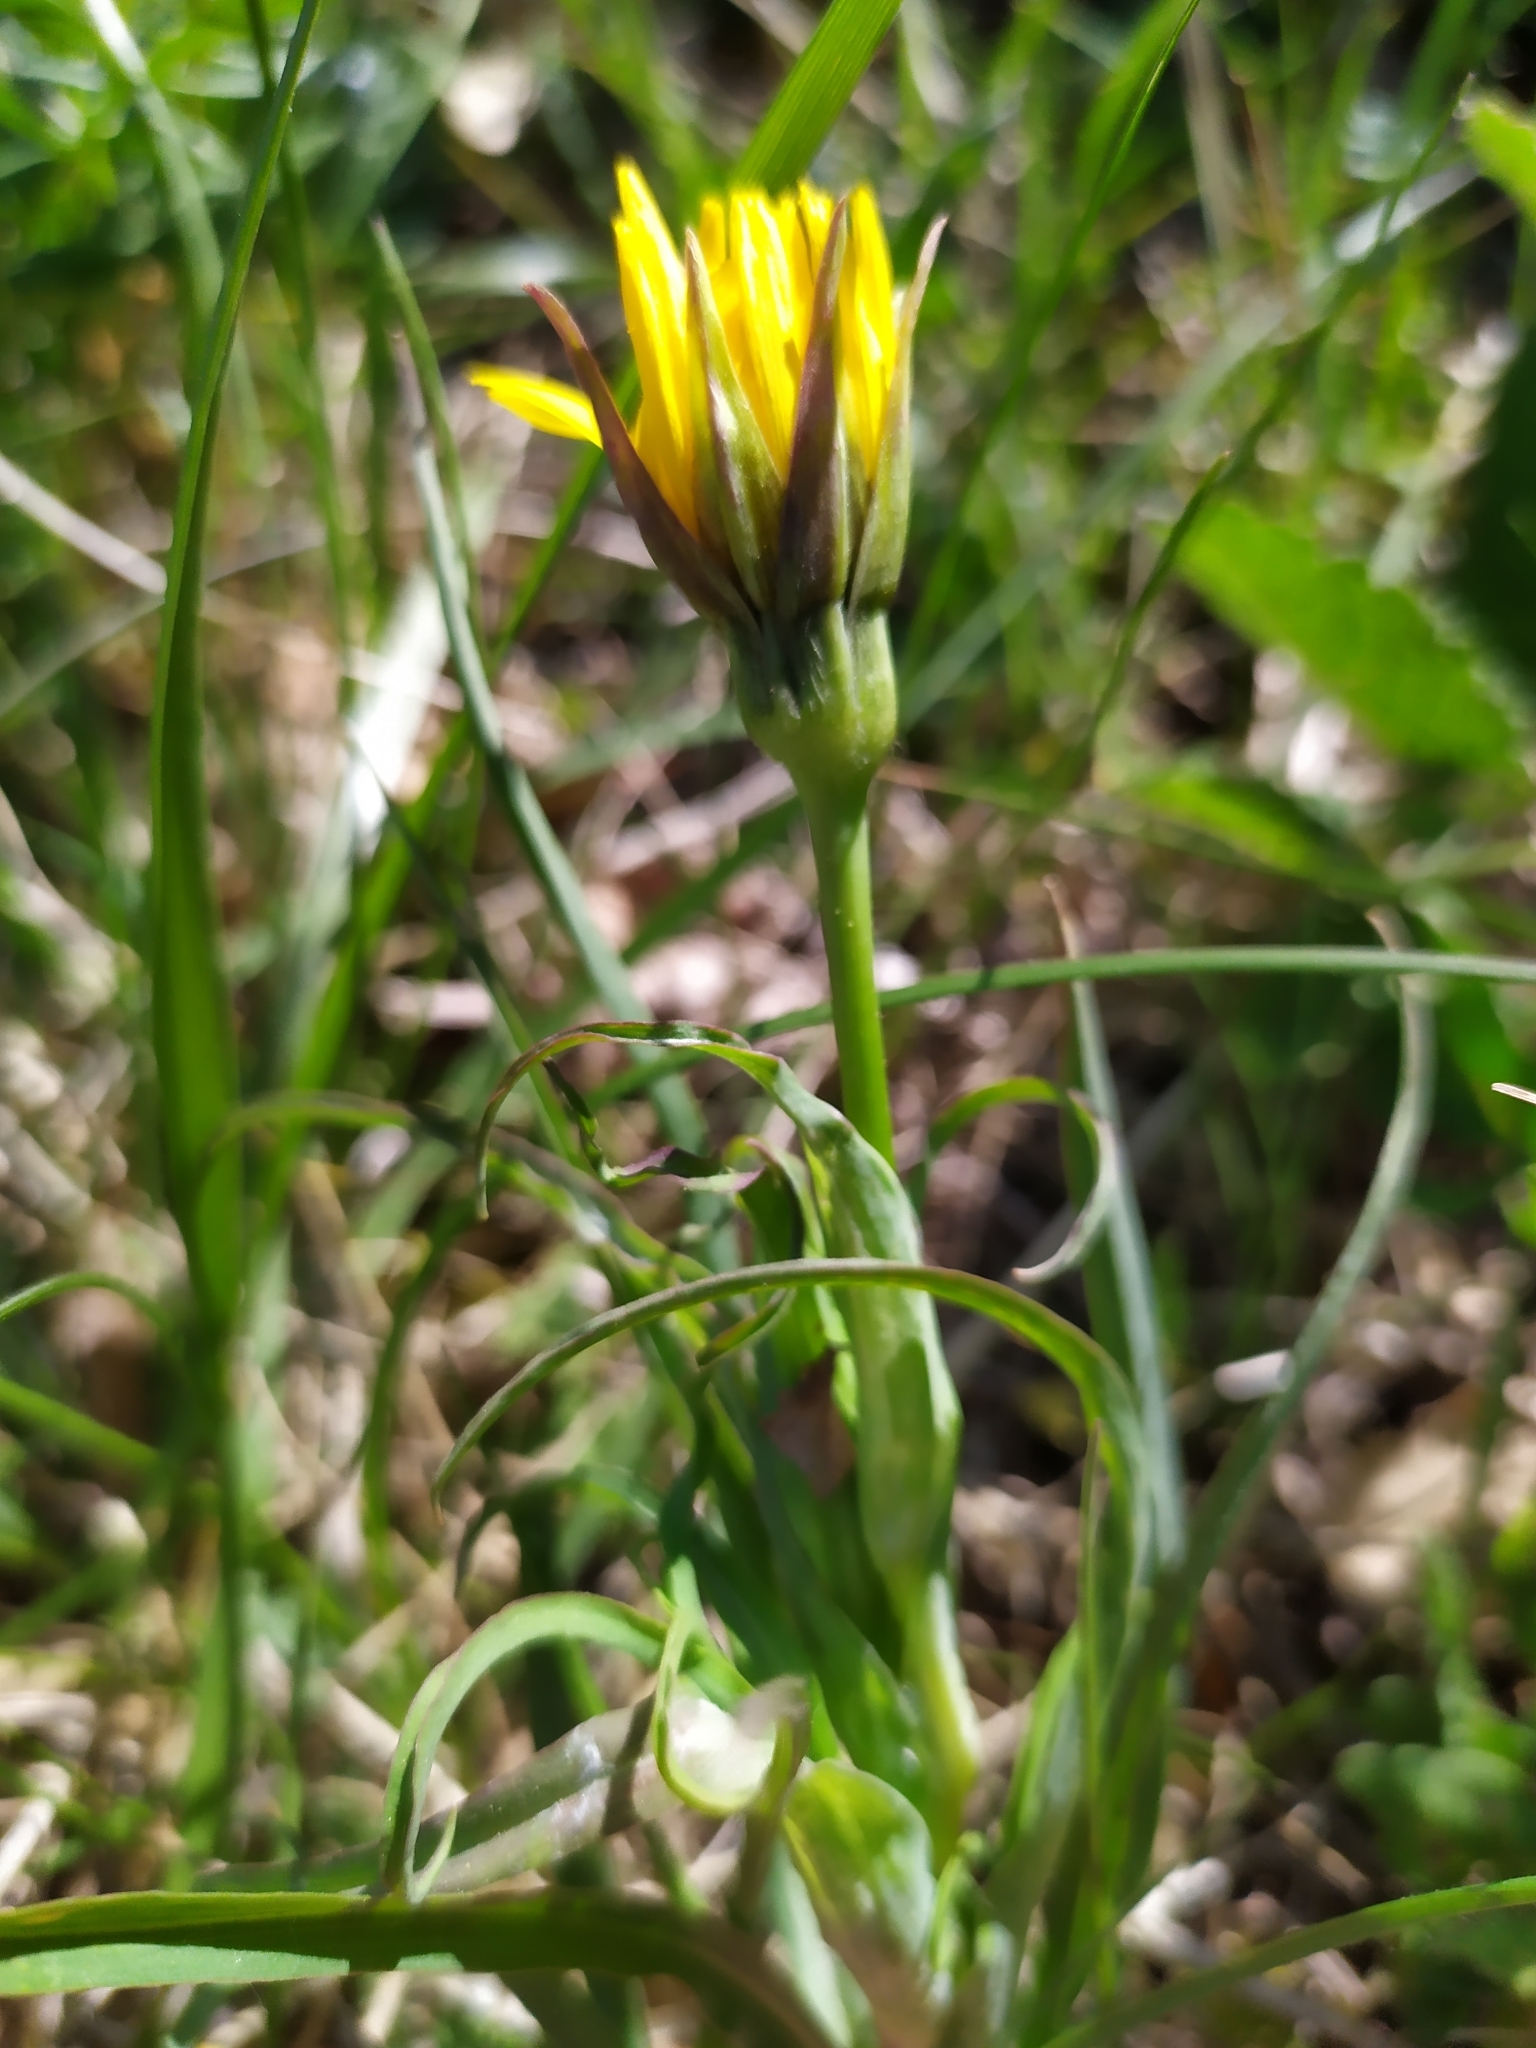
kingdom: Plantae
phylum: Tracheophyta
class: Magnoliopsida
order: Asterales
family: Asteraceae
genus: Tragopogon
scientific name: Tragopogon orientalis
